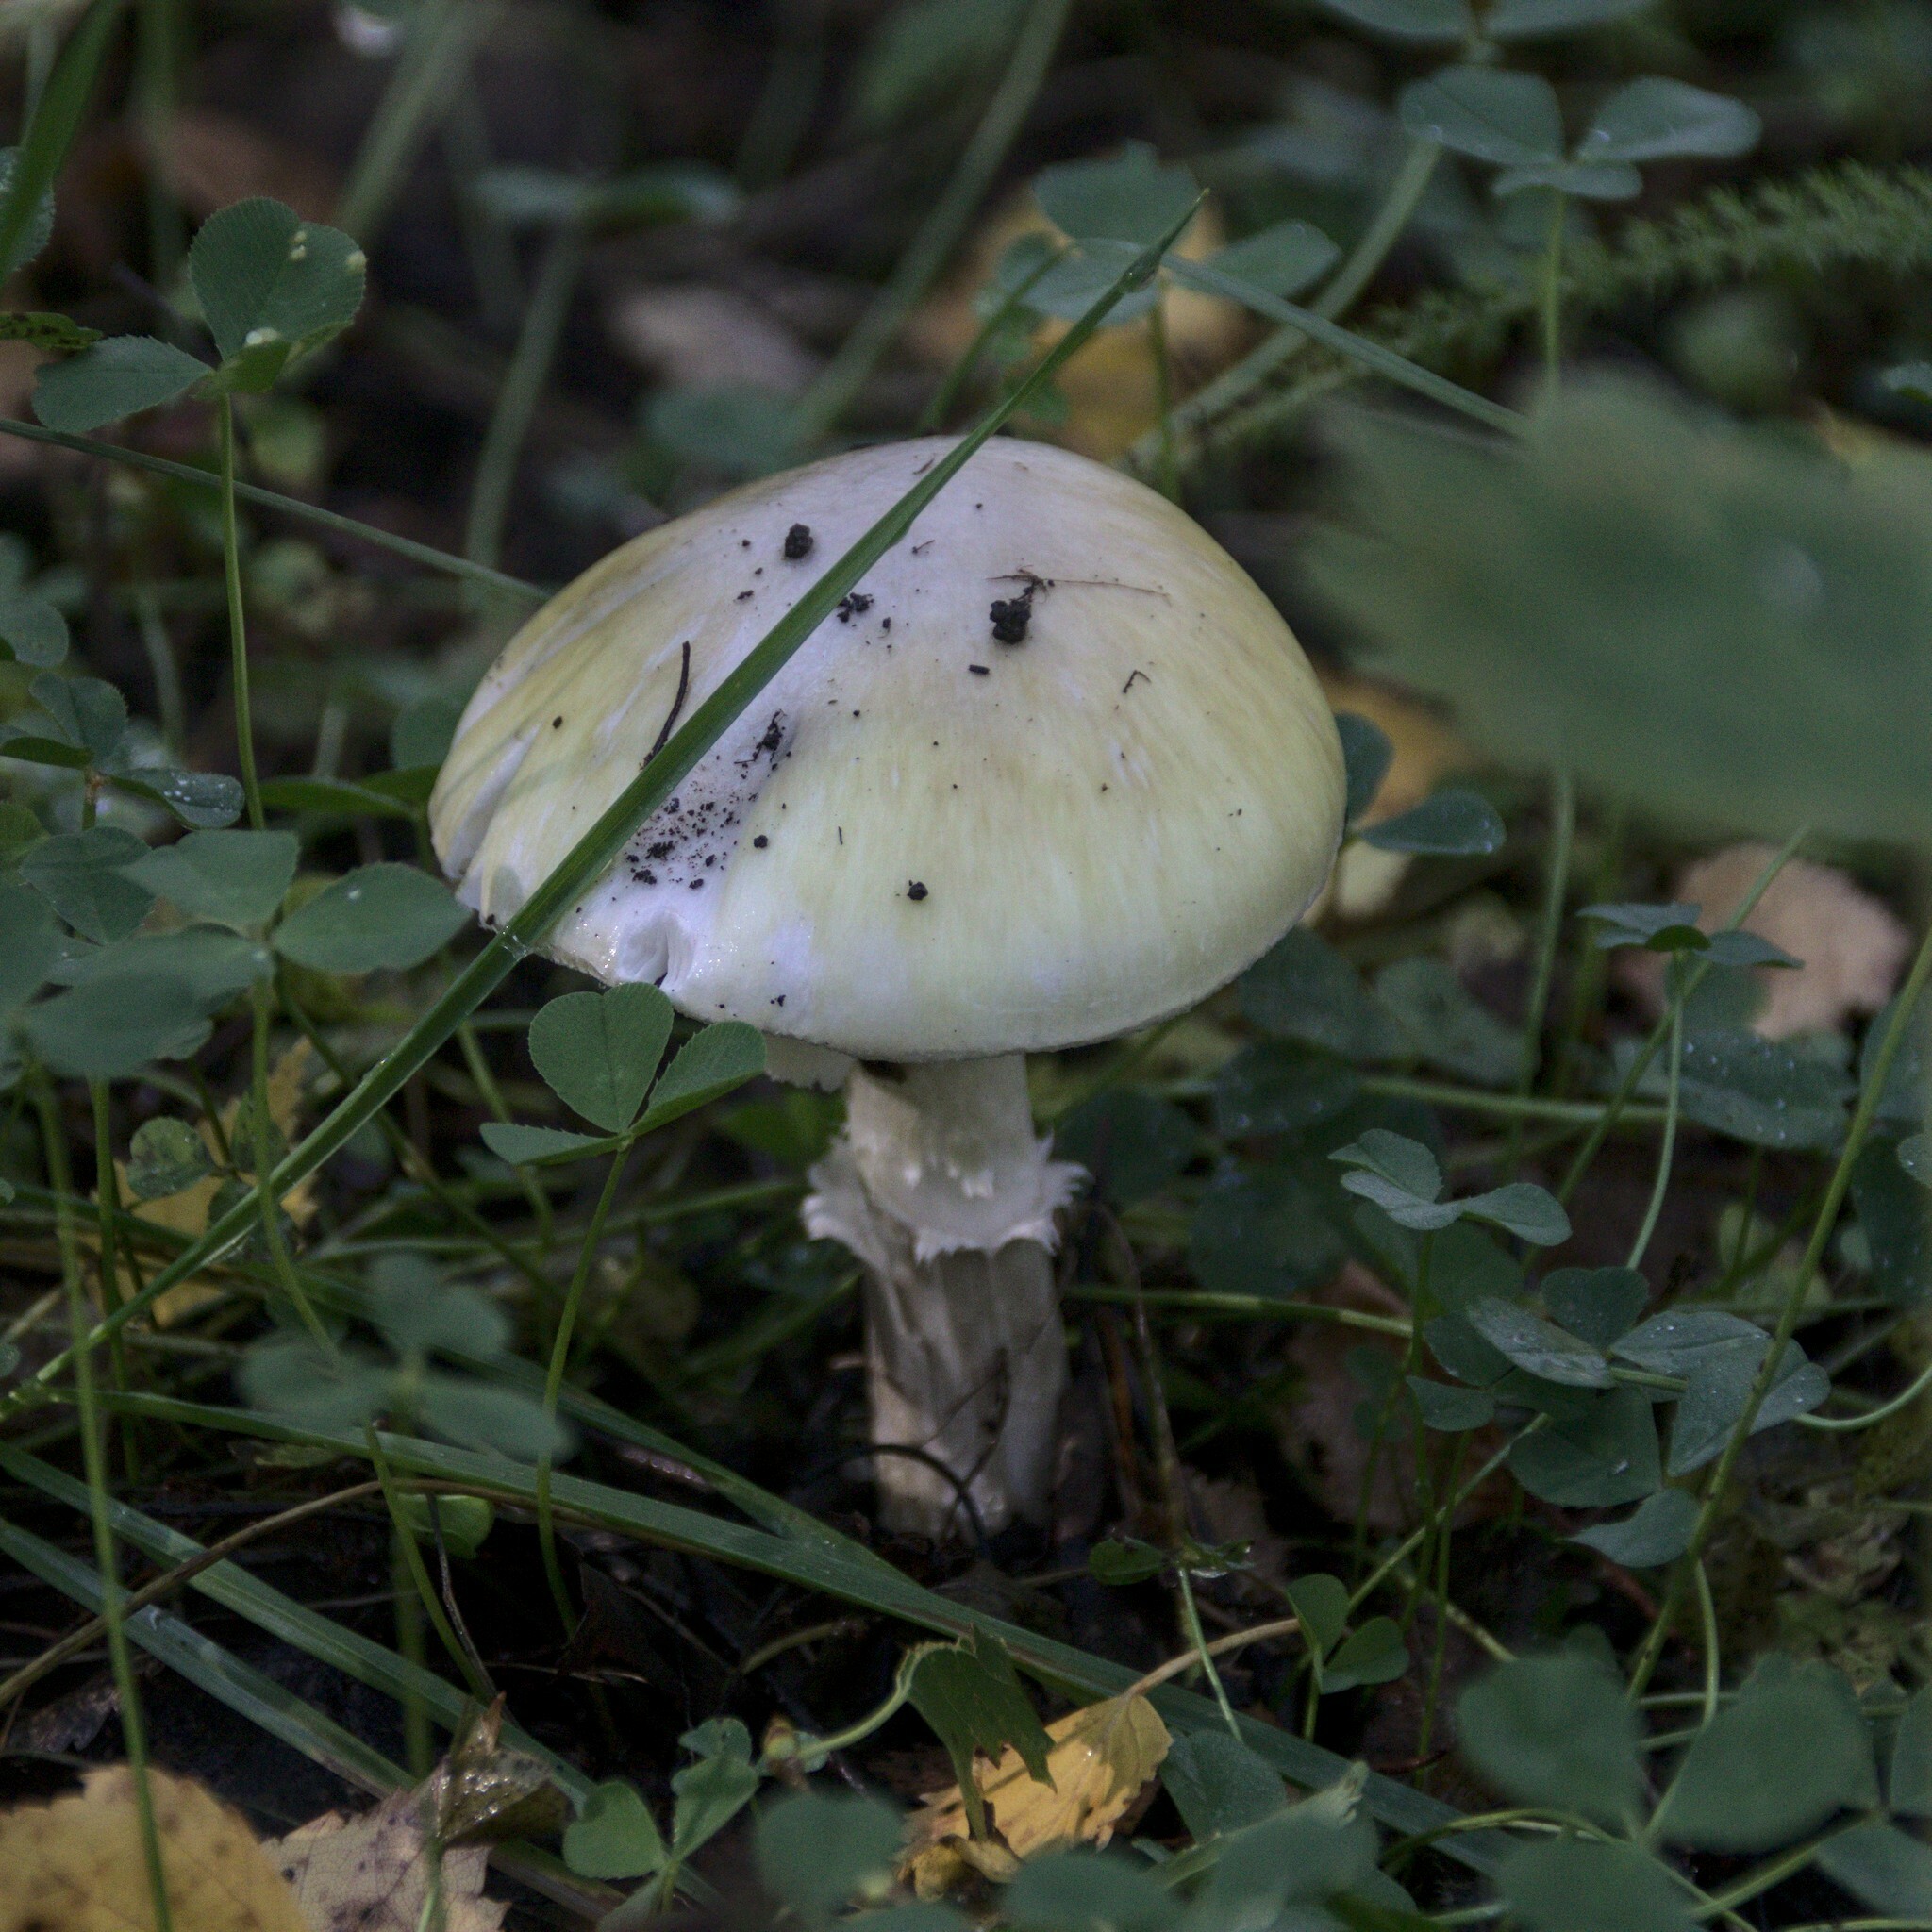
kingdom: Fungi
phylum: Basidiomycota
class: Agaricomycetes
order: Agaricales
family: Amanitaceae
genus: Amanita
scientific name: Amanita phalloides
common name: Death cap
